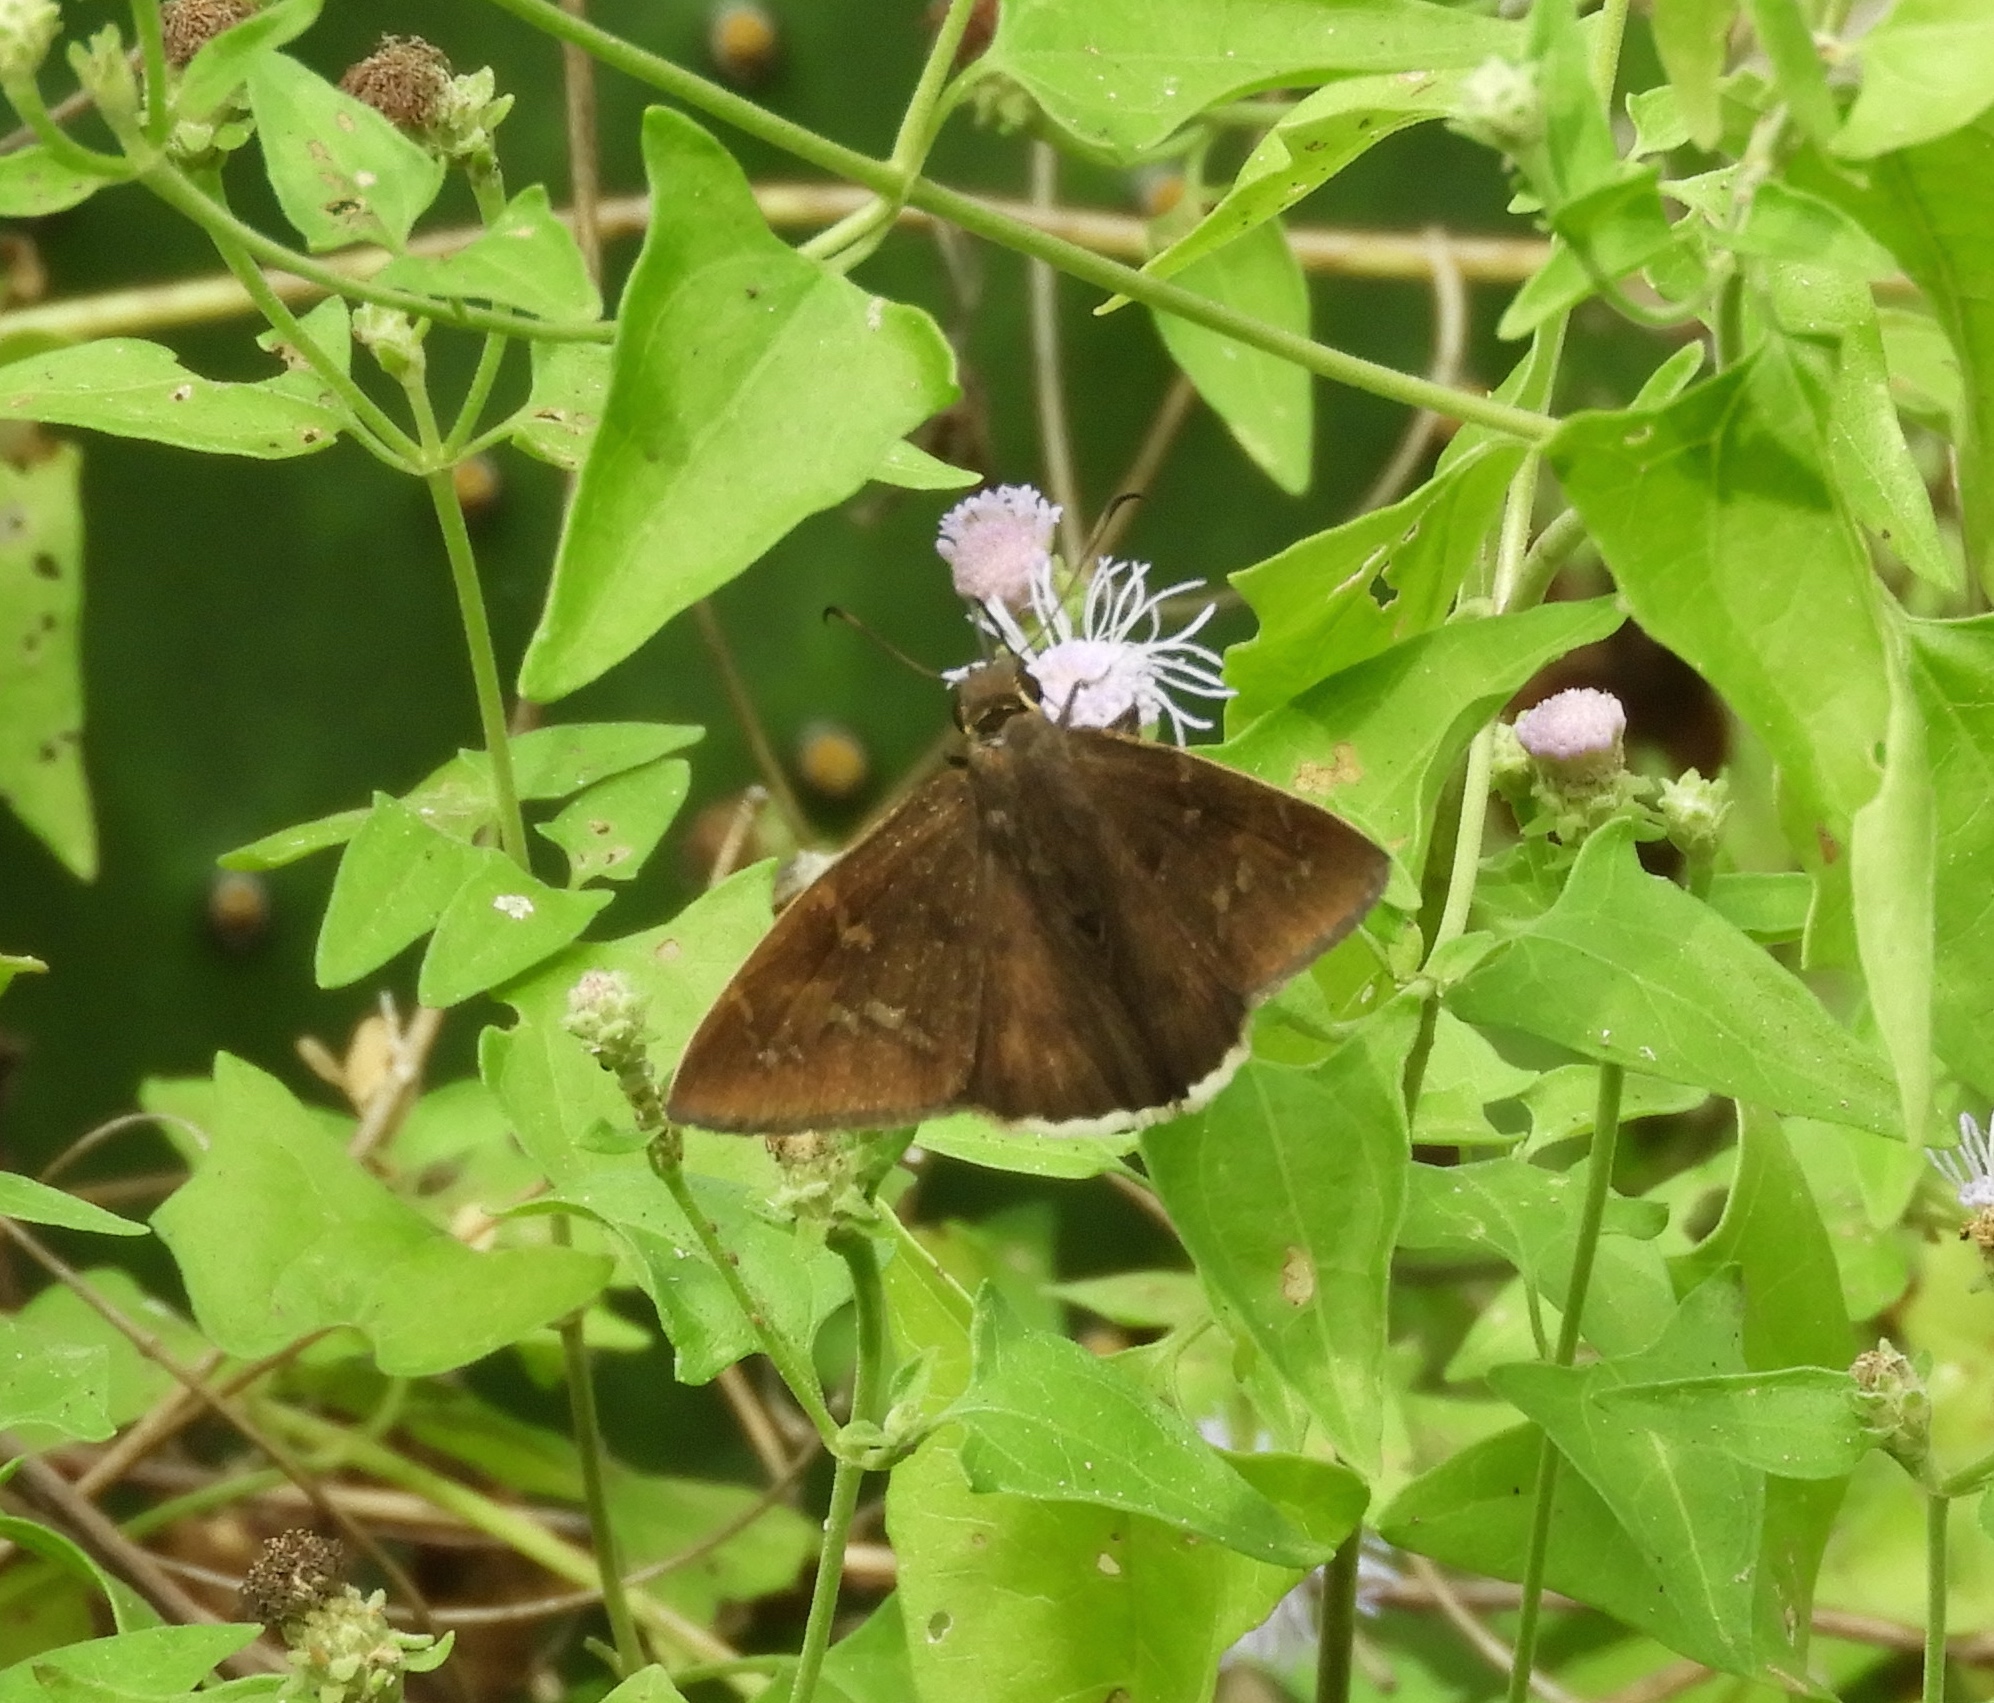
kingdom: Animalia
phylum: Arthropoda
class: Insecta
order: Lepidoptera
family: Hesperiidae
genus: Achalarus
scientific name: Achalarus Murgaria albociliatus
